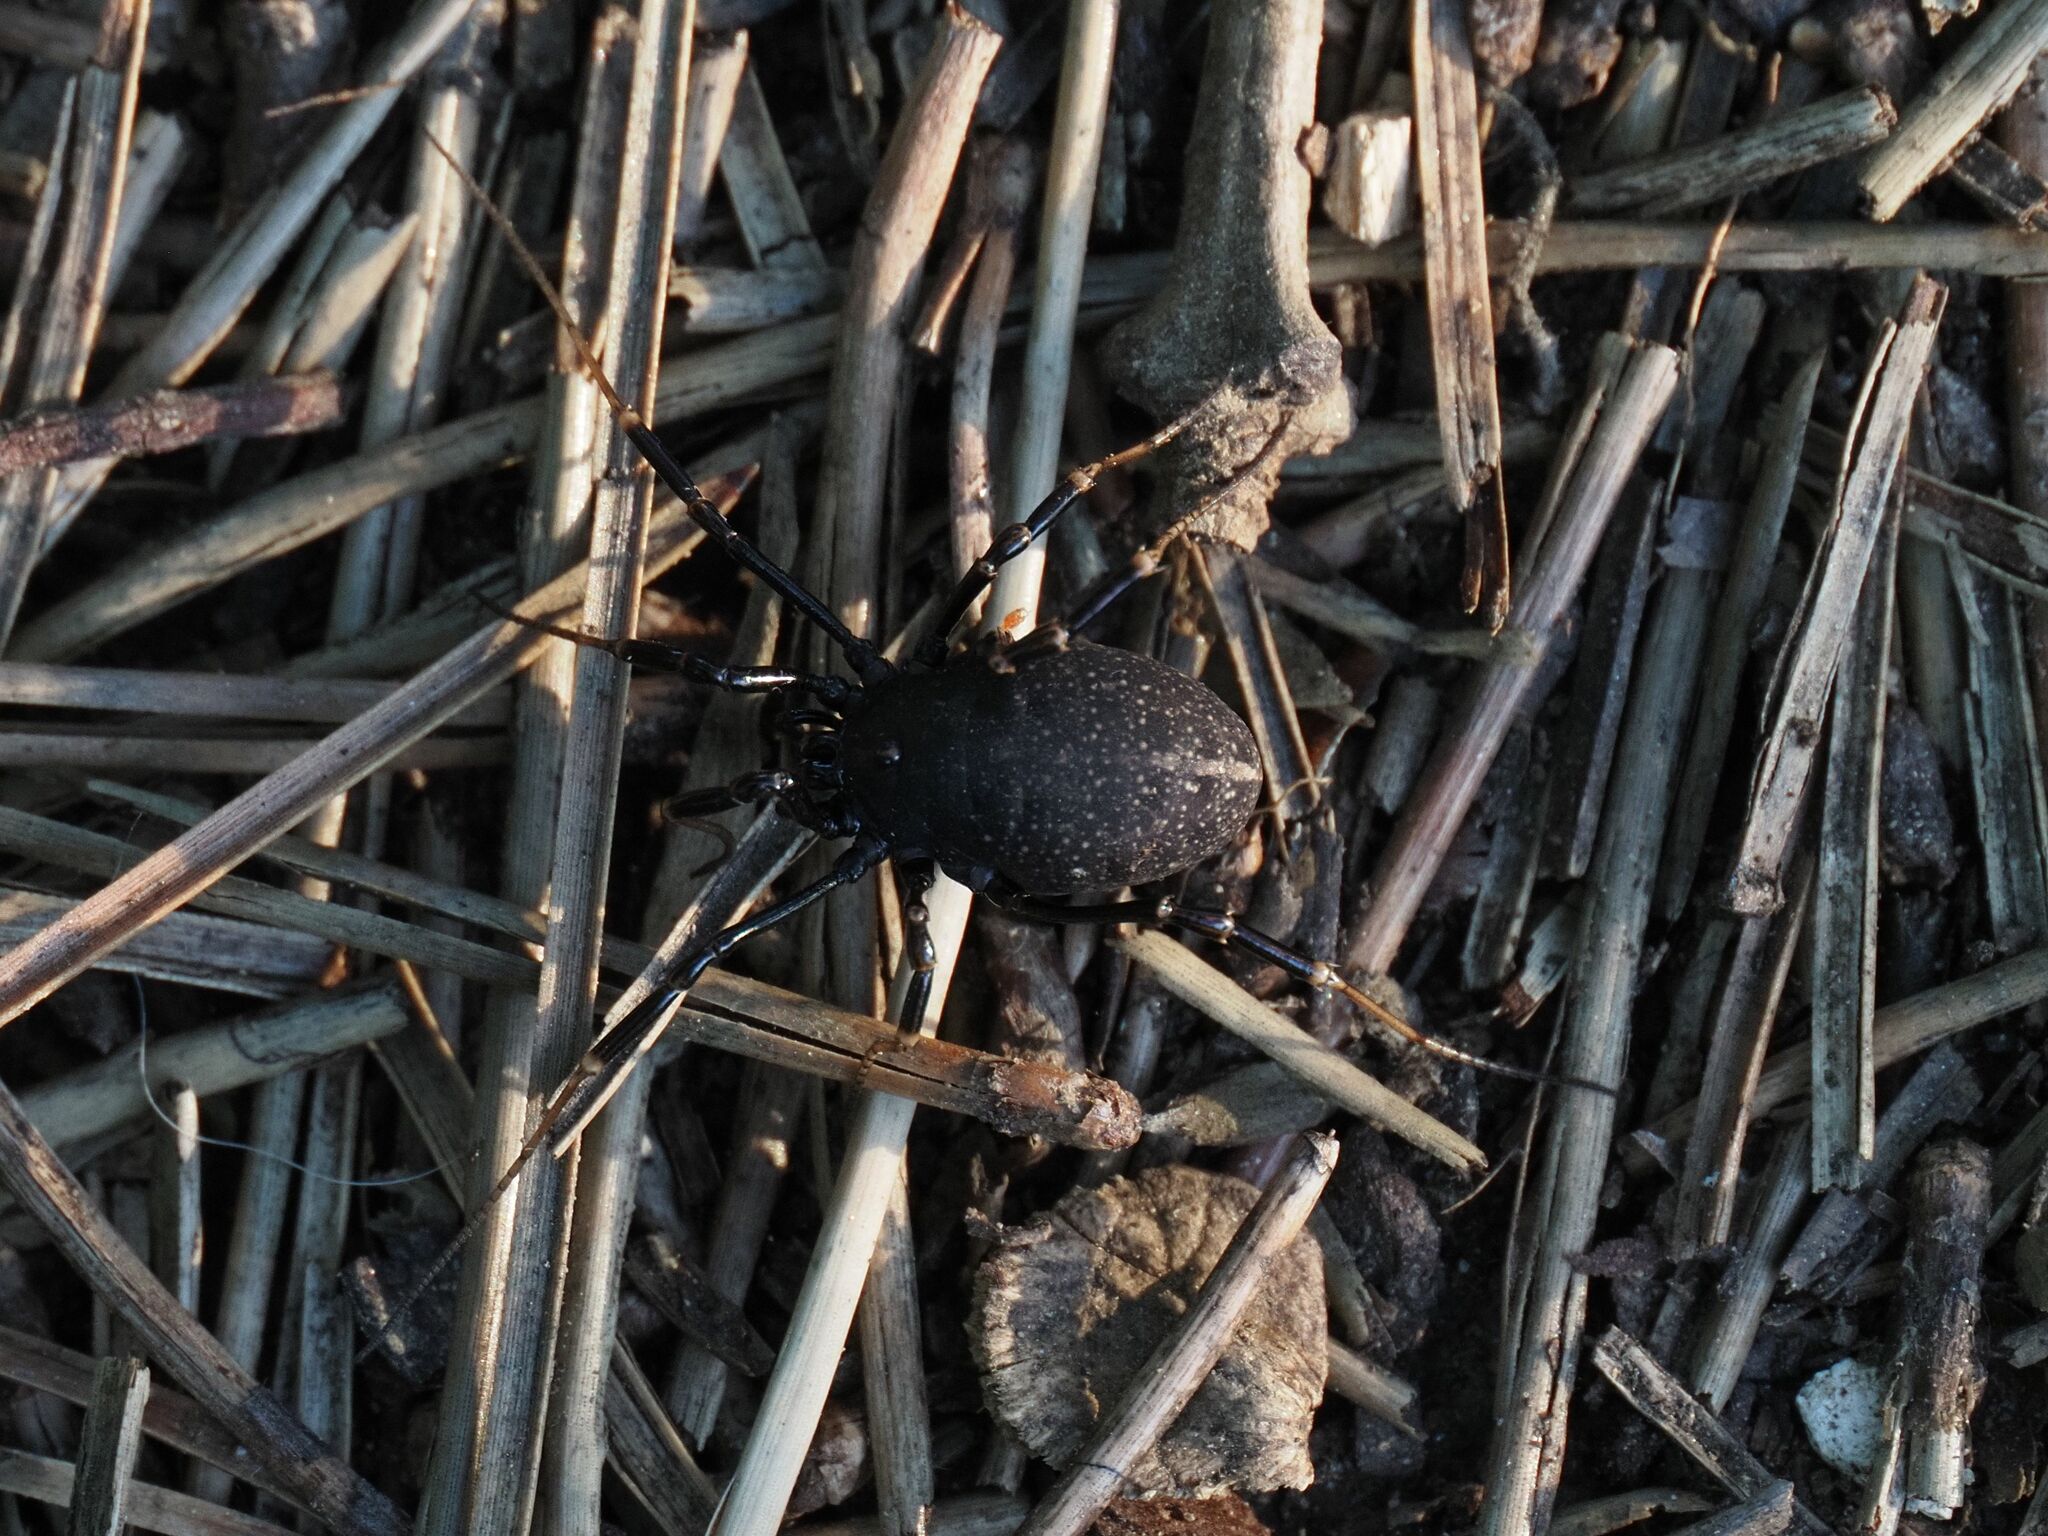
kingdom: Animalia
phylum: Arthropoda
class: Arachnida
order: Opiliones
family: Phalangiidae
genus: Egaenus
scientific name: Egaenus convexus
